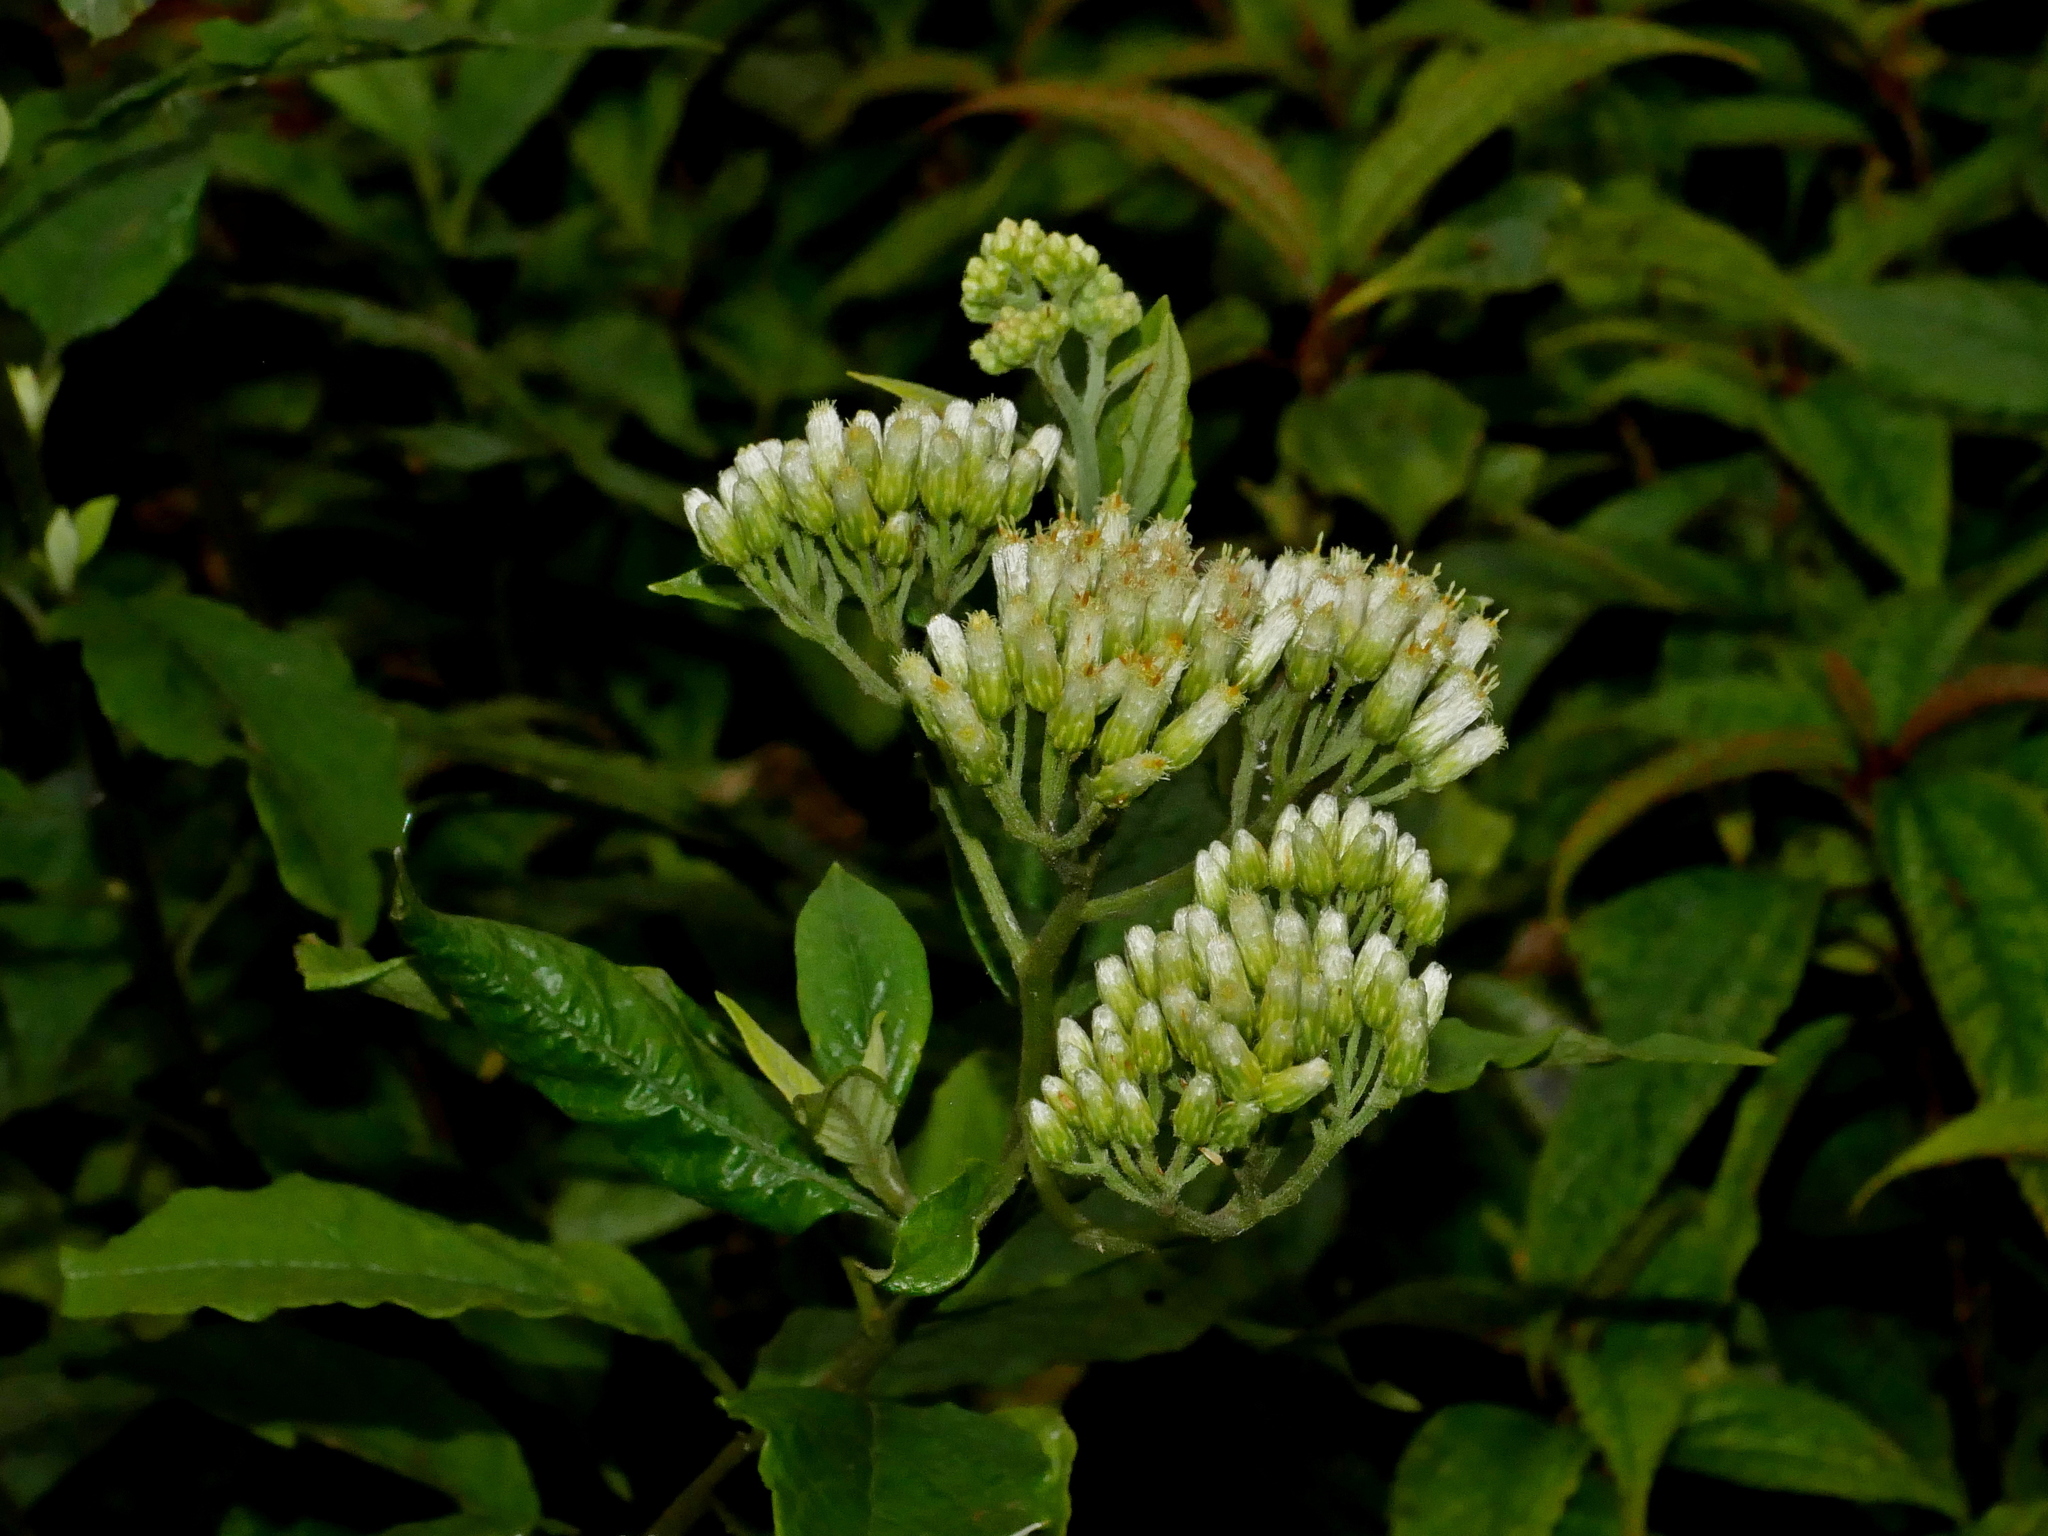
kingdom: Plantae
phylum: Tracheophyta
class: Magnoliopsida
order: Asterales
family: Asteraceae
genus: Microglossa
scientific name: Microglossa pyrifolia
